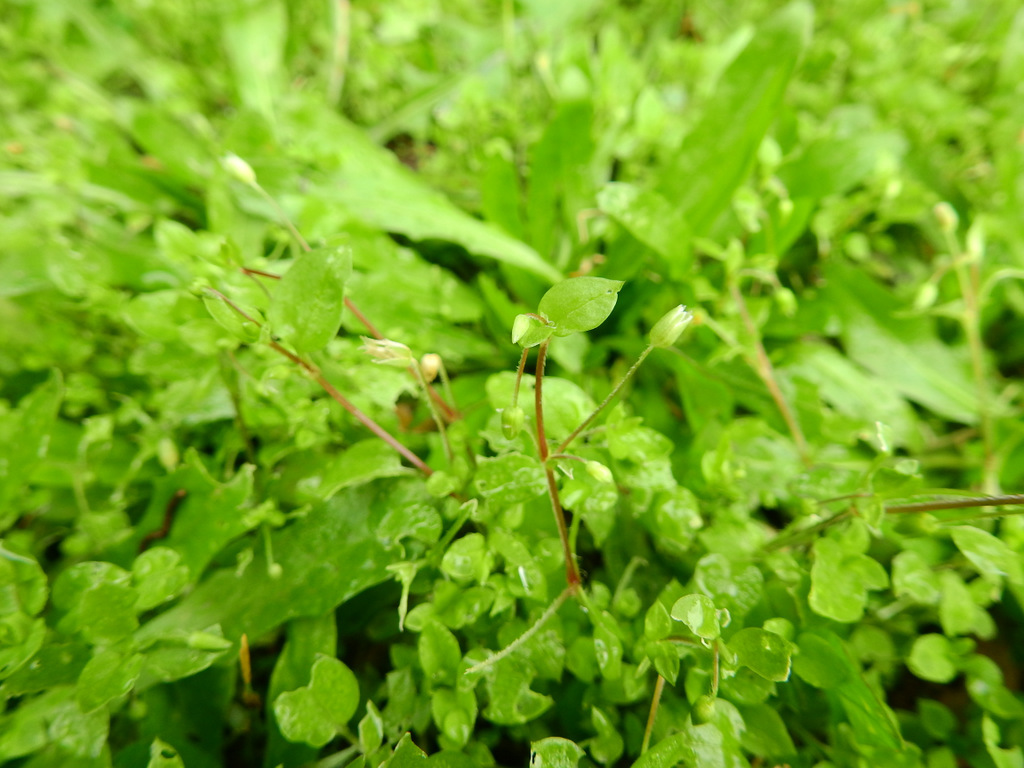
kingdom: Plantae
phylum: Tracheophyta
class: Magnoliopsida
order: Caryophyllales
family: Caryophyllaceae
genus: Stellaria
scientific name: Stellaria media
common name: Common chickweed
